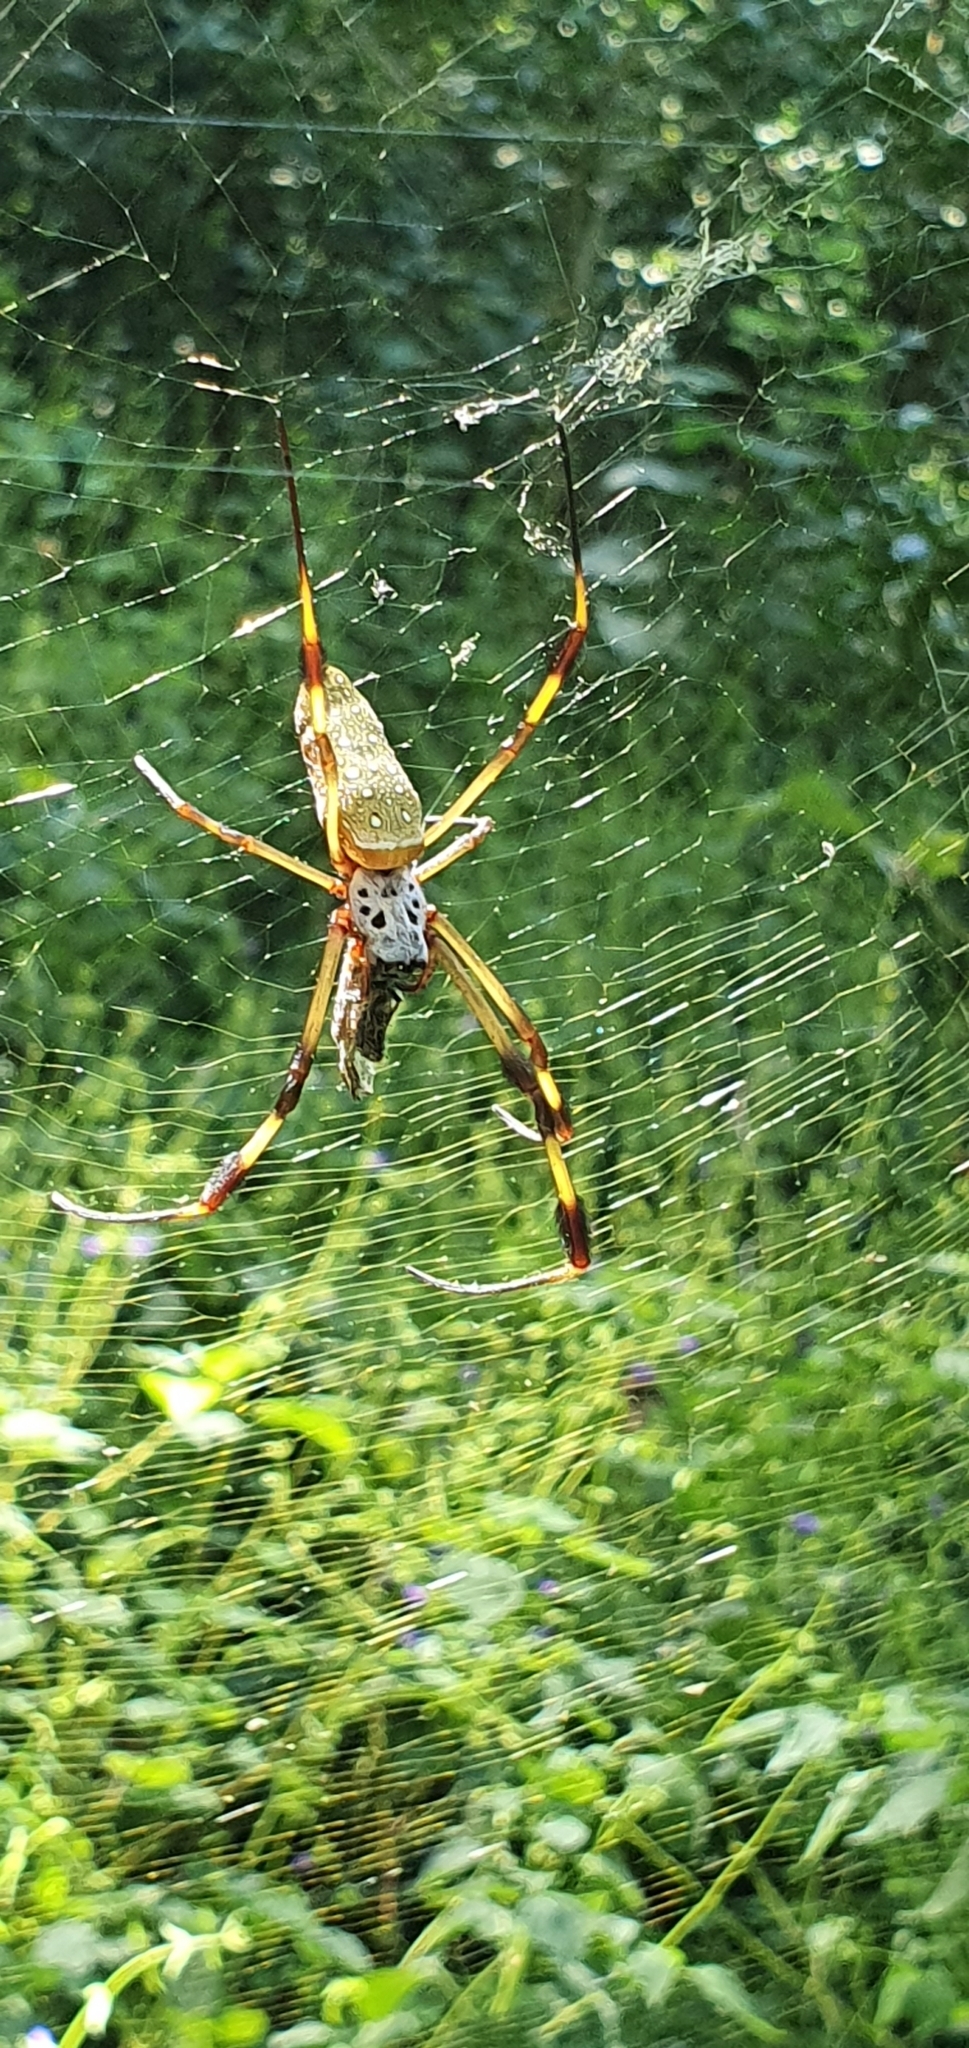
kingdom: Animalia
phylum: Arthropoda
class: Arachnida
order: Araneae
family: Araneidae
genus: Trichonephila
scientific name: Trichonephila clavipes
